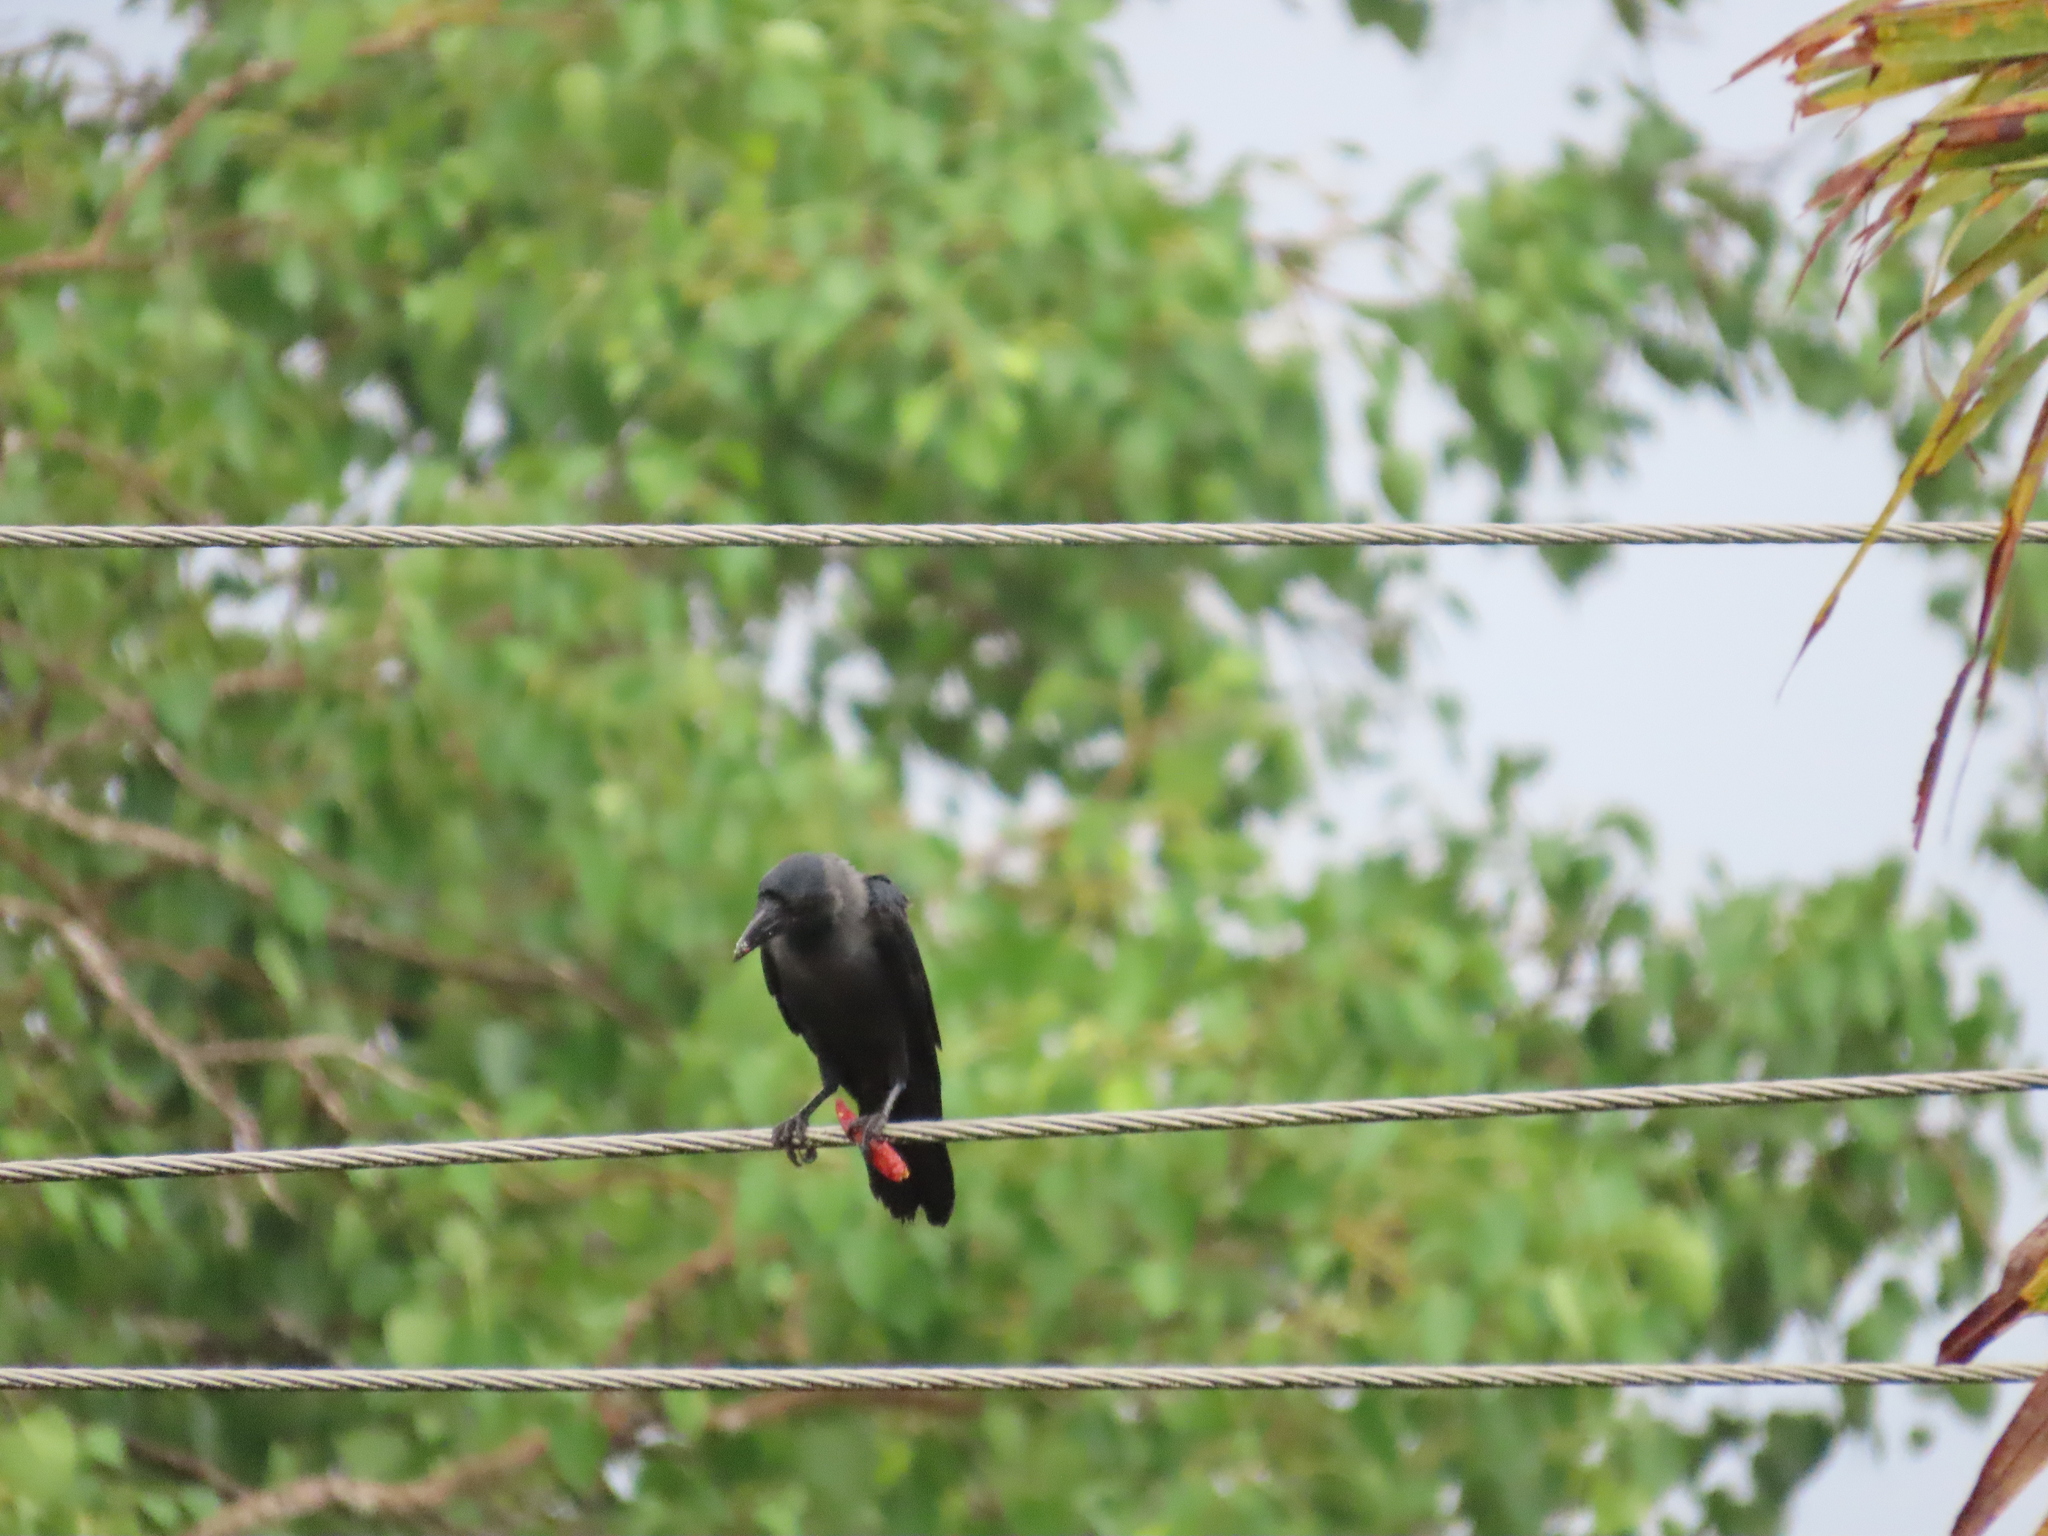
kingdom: Animalia
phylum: Chordata
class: Aves
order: Passeriformes
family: Corvidae
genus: Corvus
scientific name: Corvus splendens
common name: House crow
